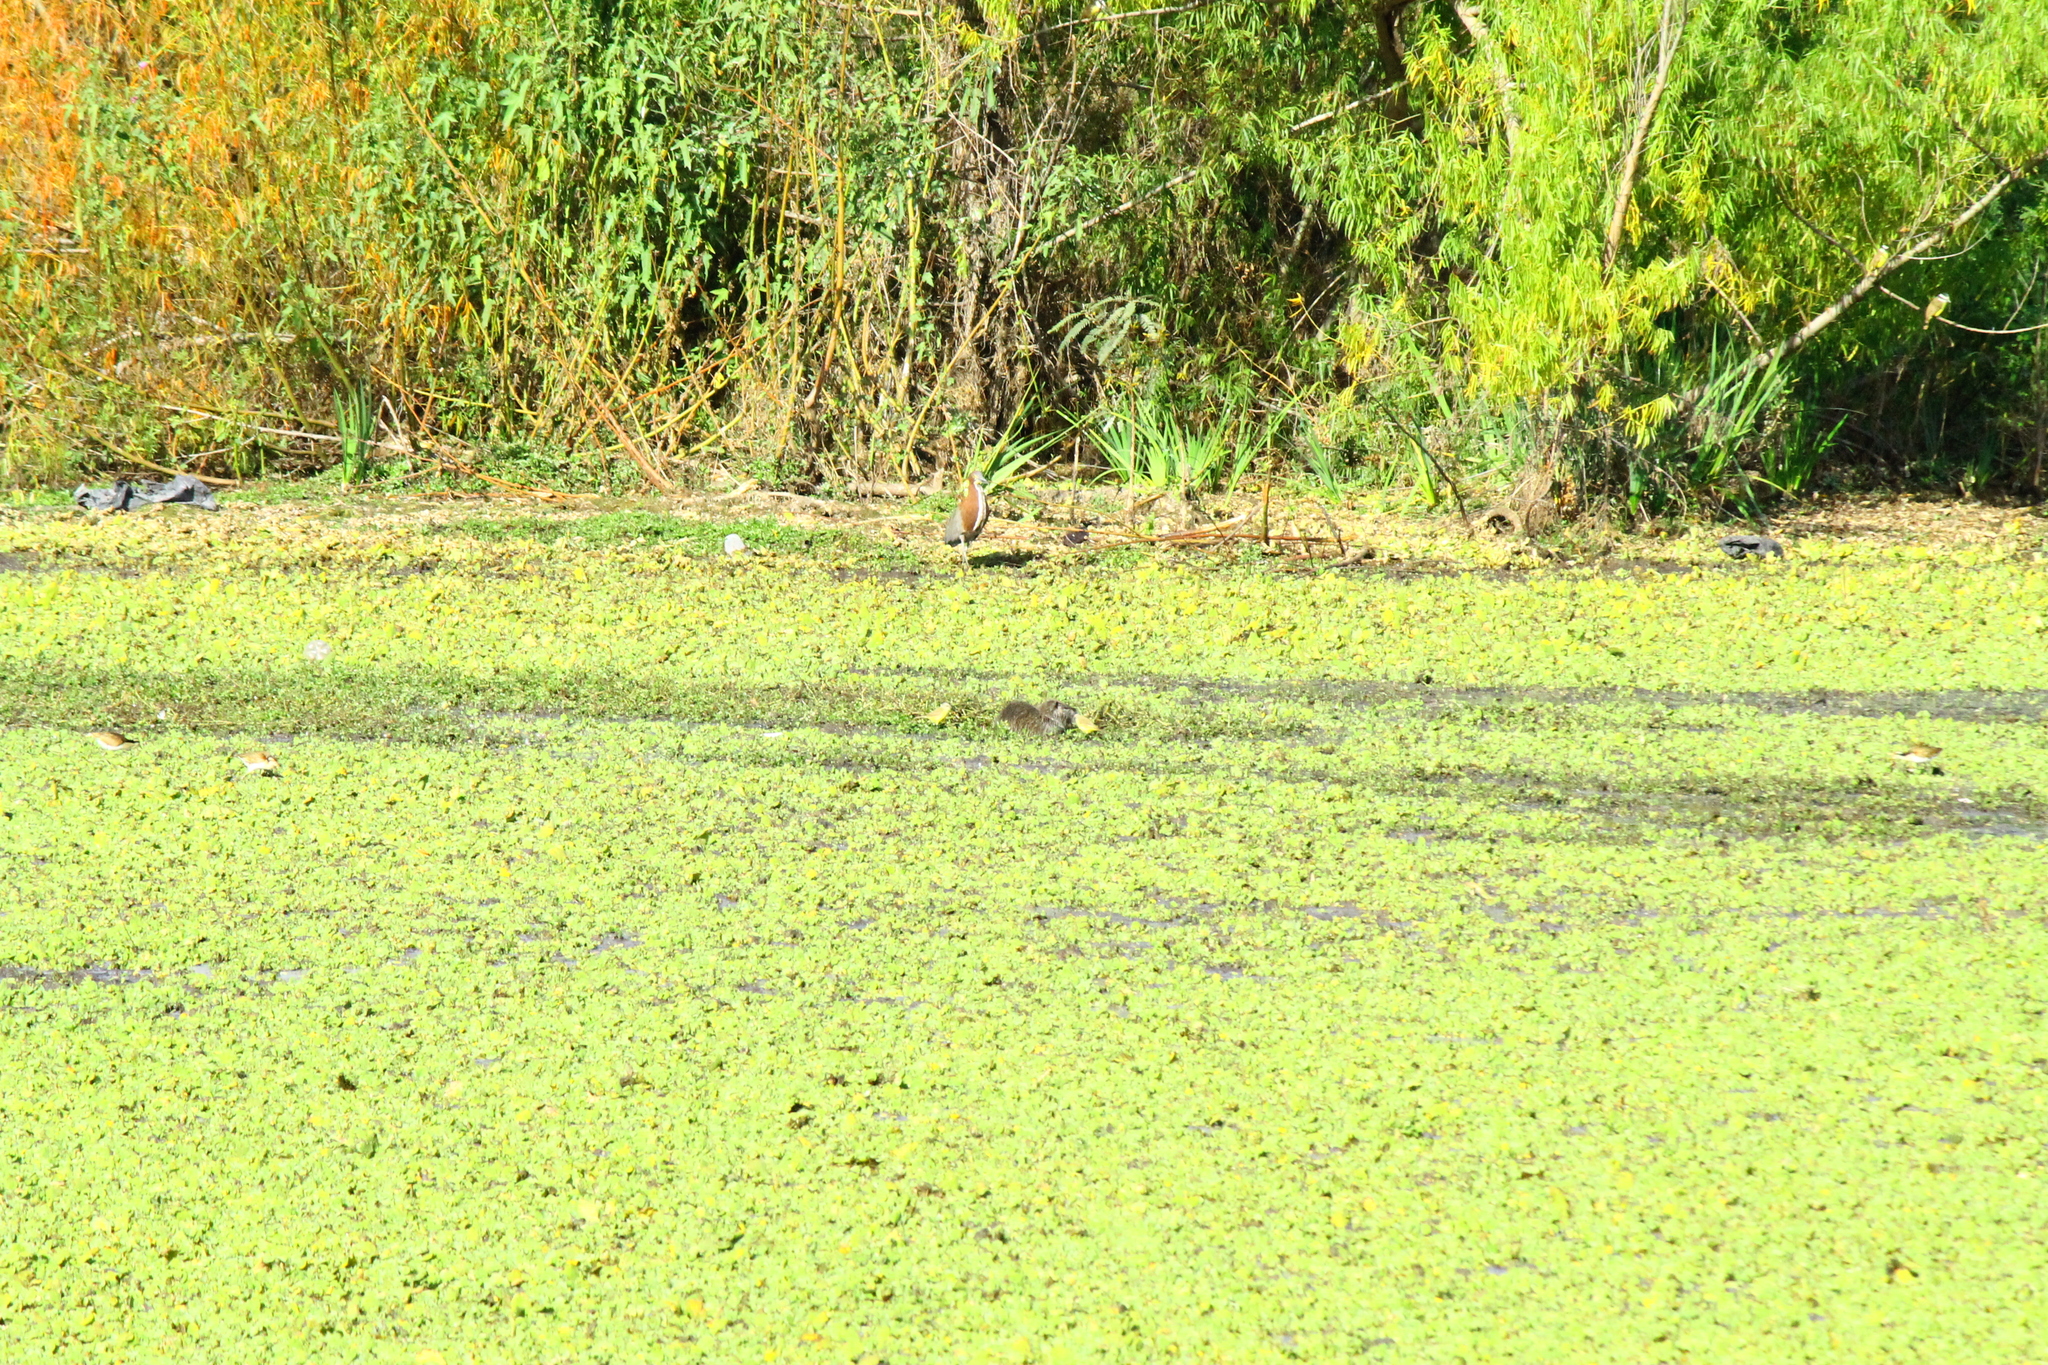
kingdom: Animalia
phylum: Chordata
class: Mammalia
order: Rodentia
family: Myocastoridae
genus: Myocastor
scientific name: Myocastor coypus
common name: Coypu
